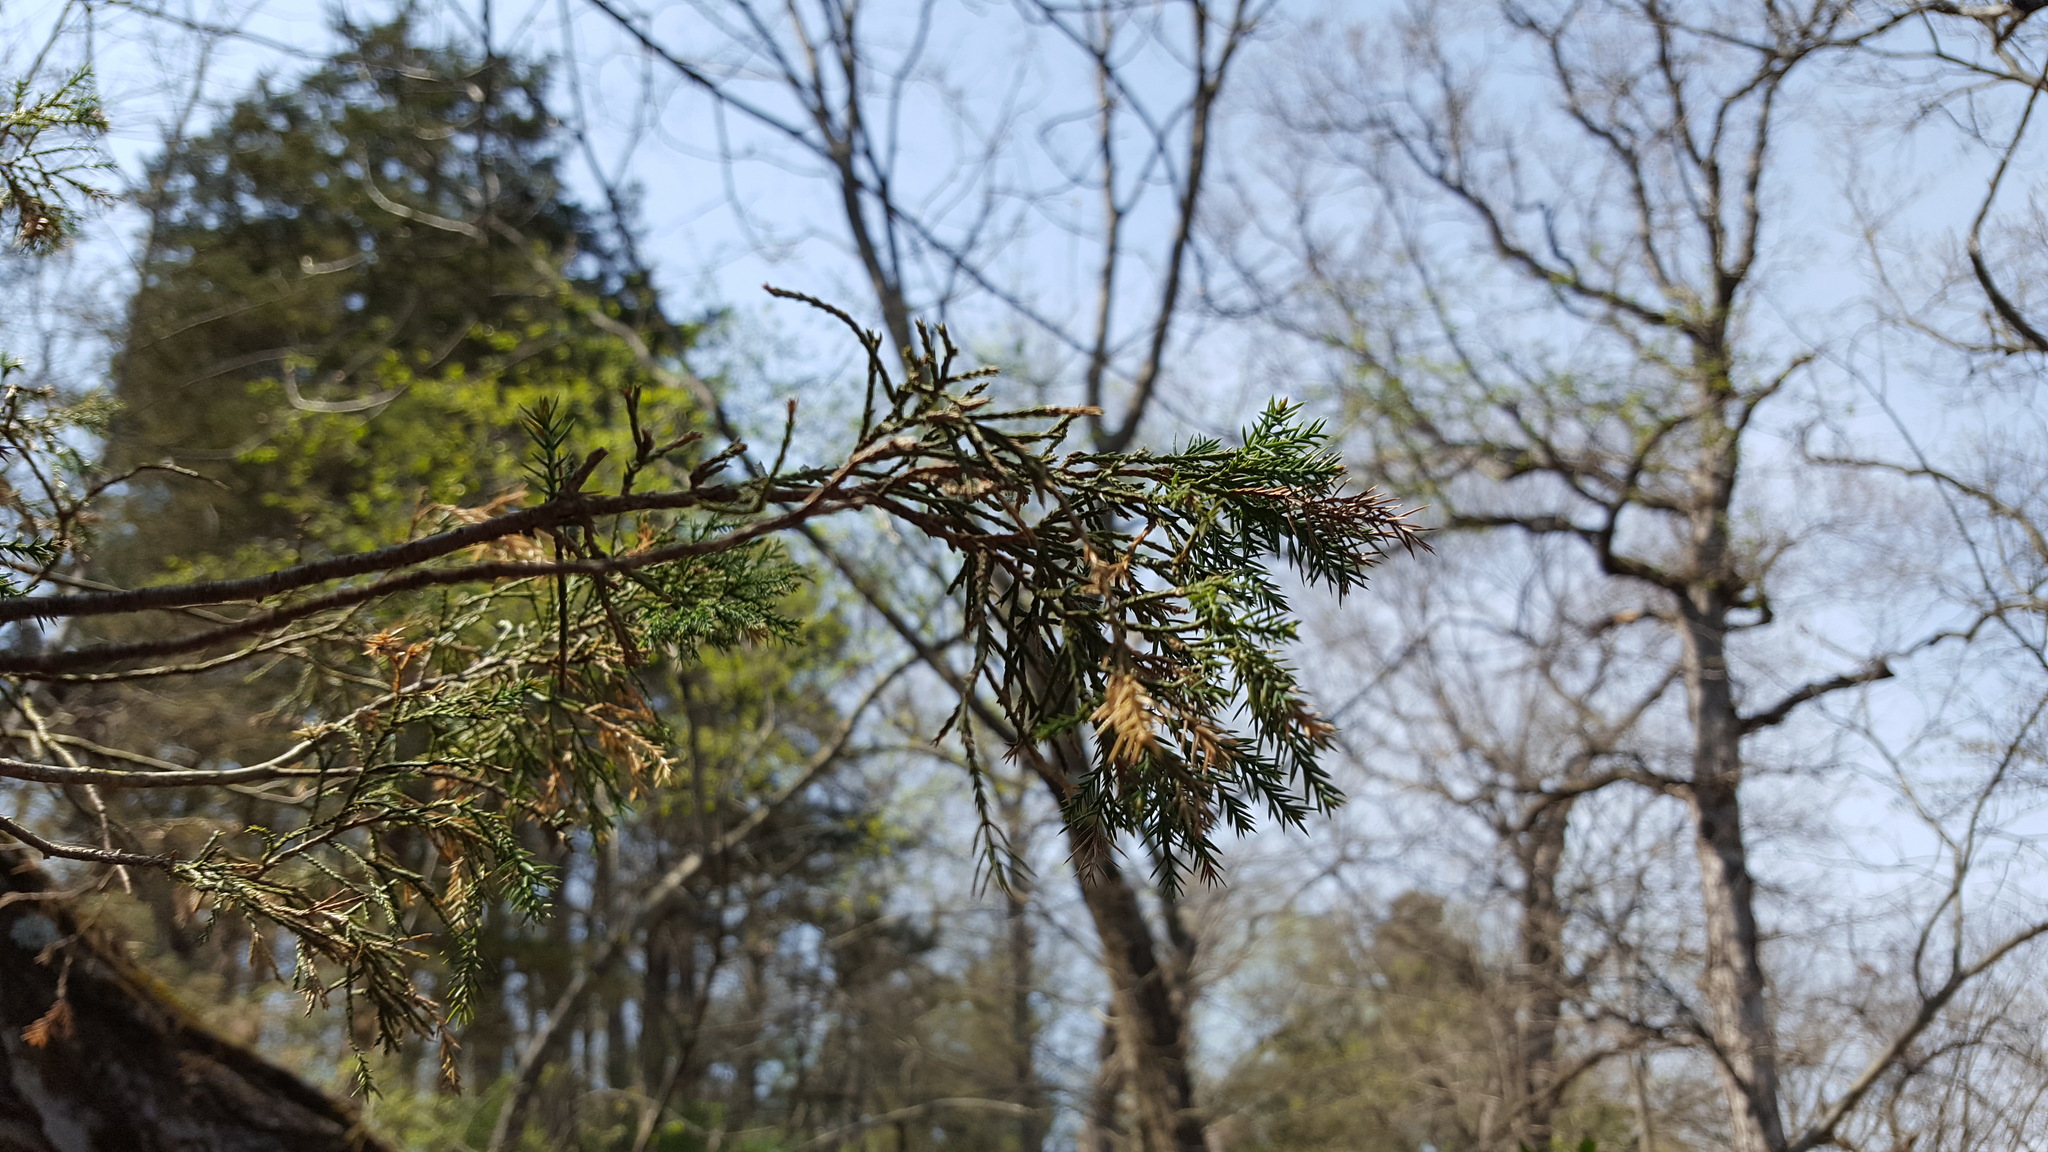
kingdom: Plantae
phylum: Tracheophyta
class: Pinopsida
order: Pinales
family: Cupressaceae
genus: Juniperus
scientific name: Juniperus virginiana
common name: Red juniper
